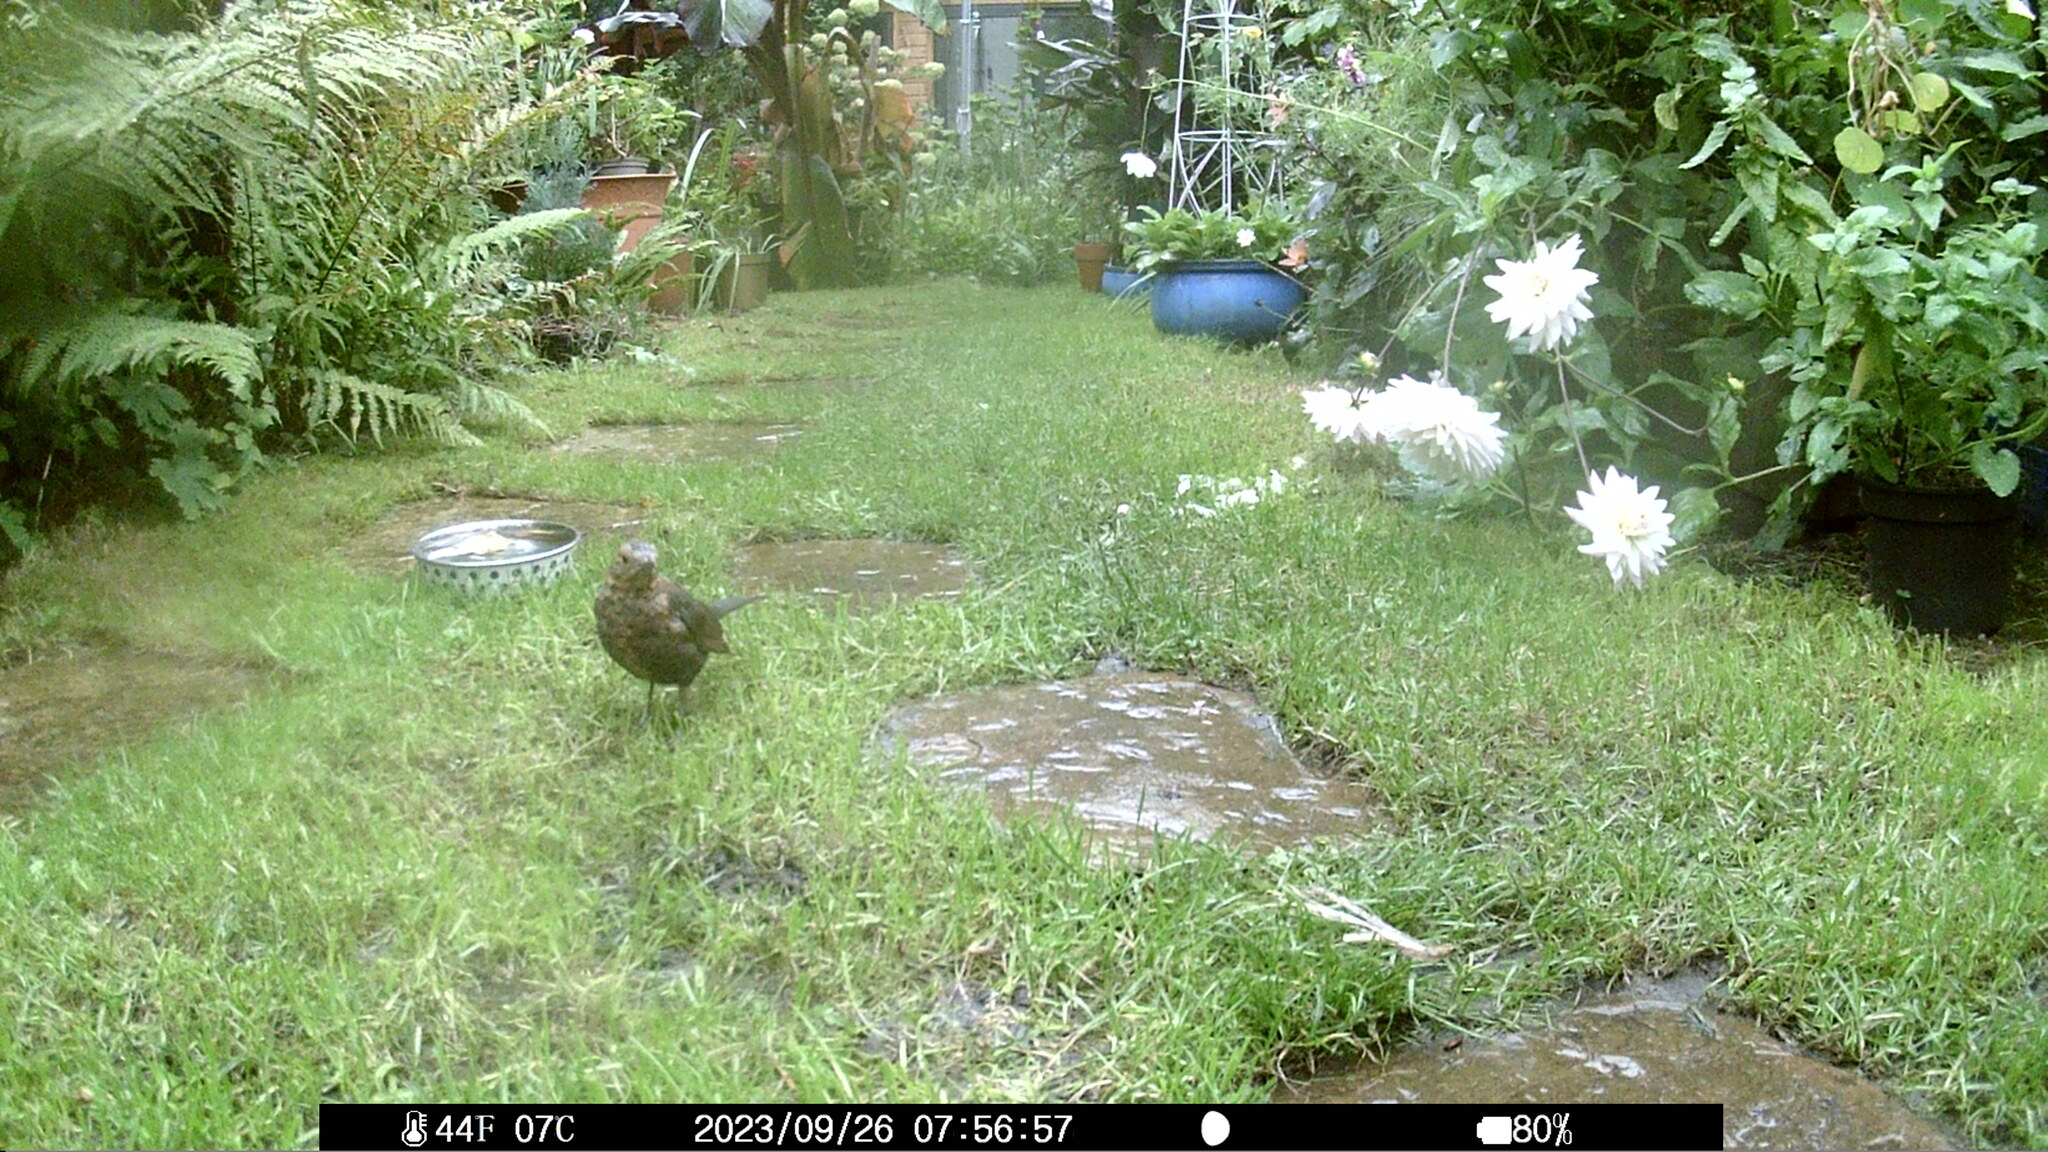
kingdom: Animalia
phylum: Chordata
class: Aves
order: Passeriformes
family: Turdidae
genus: Turdus
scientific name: Turdus merula
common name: Common blackbird
